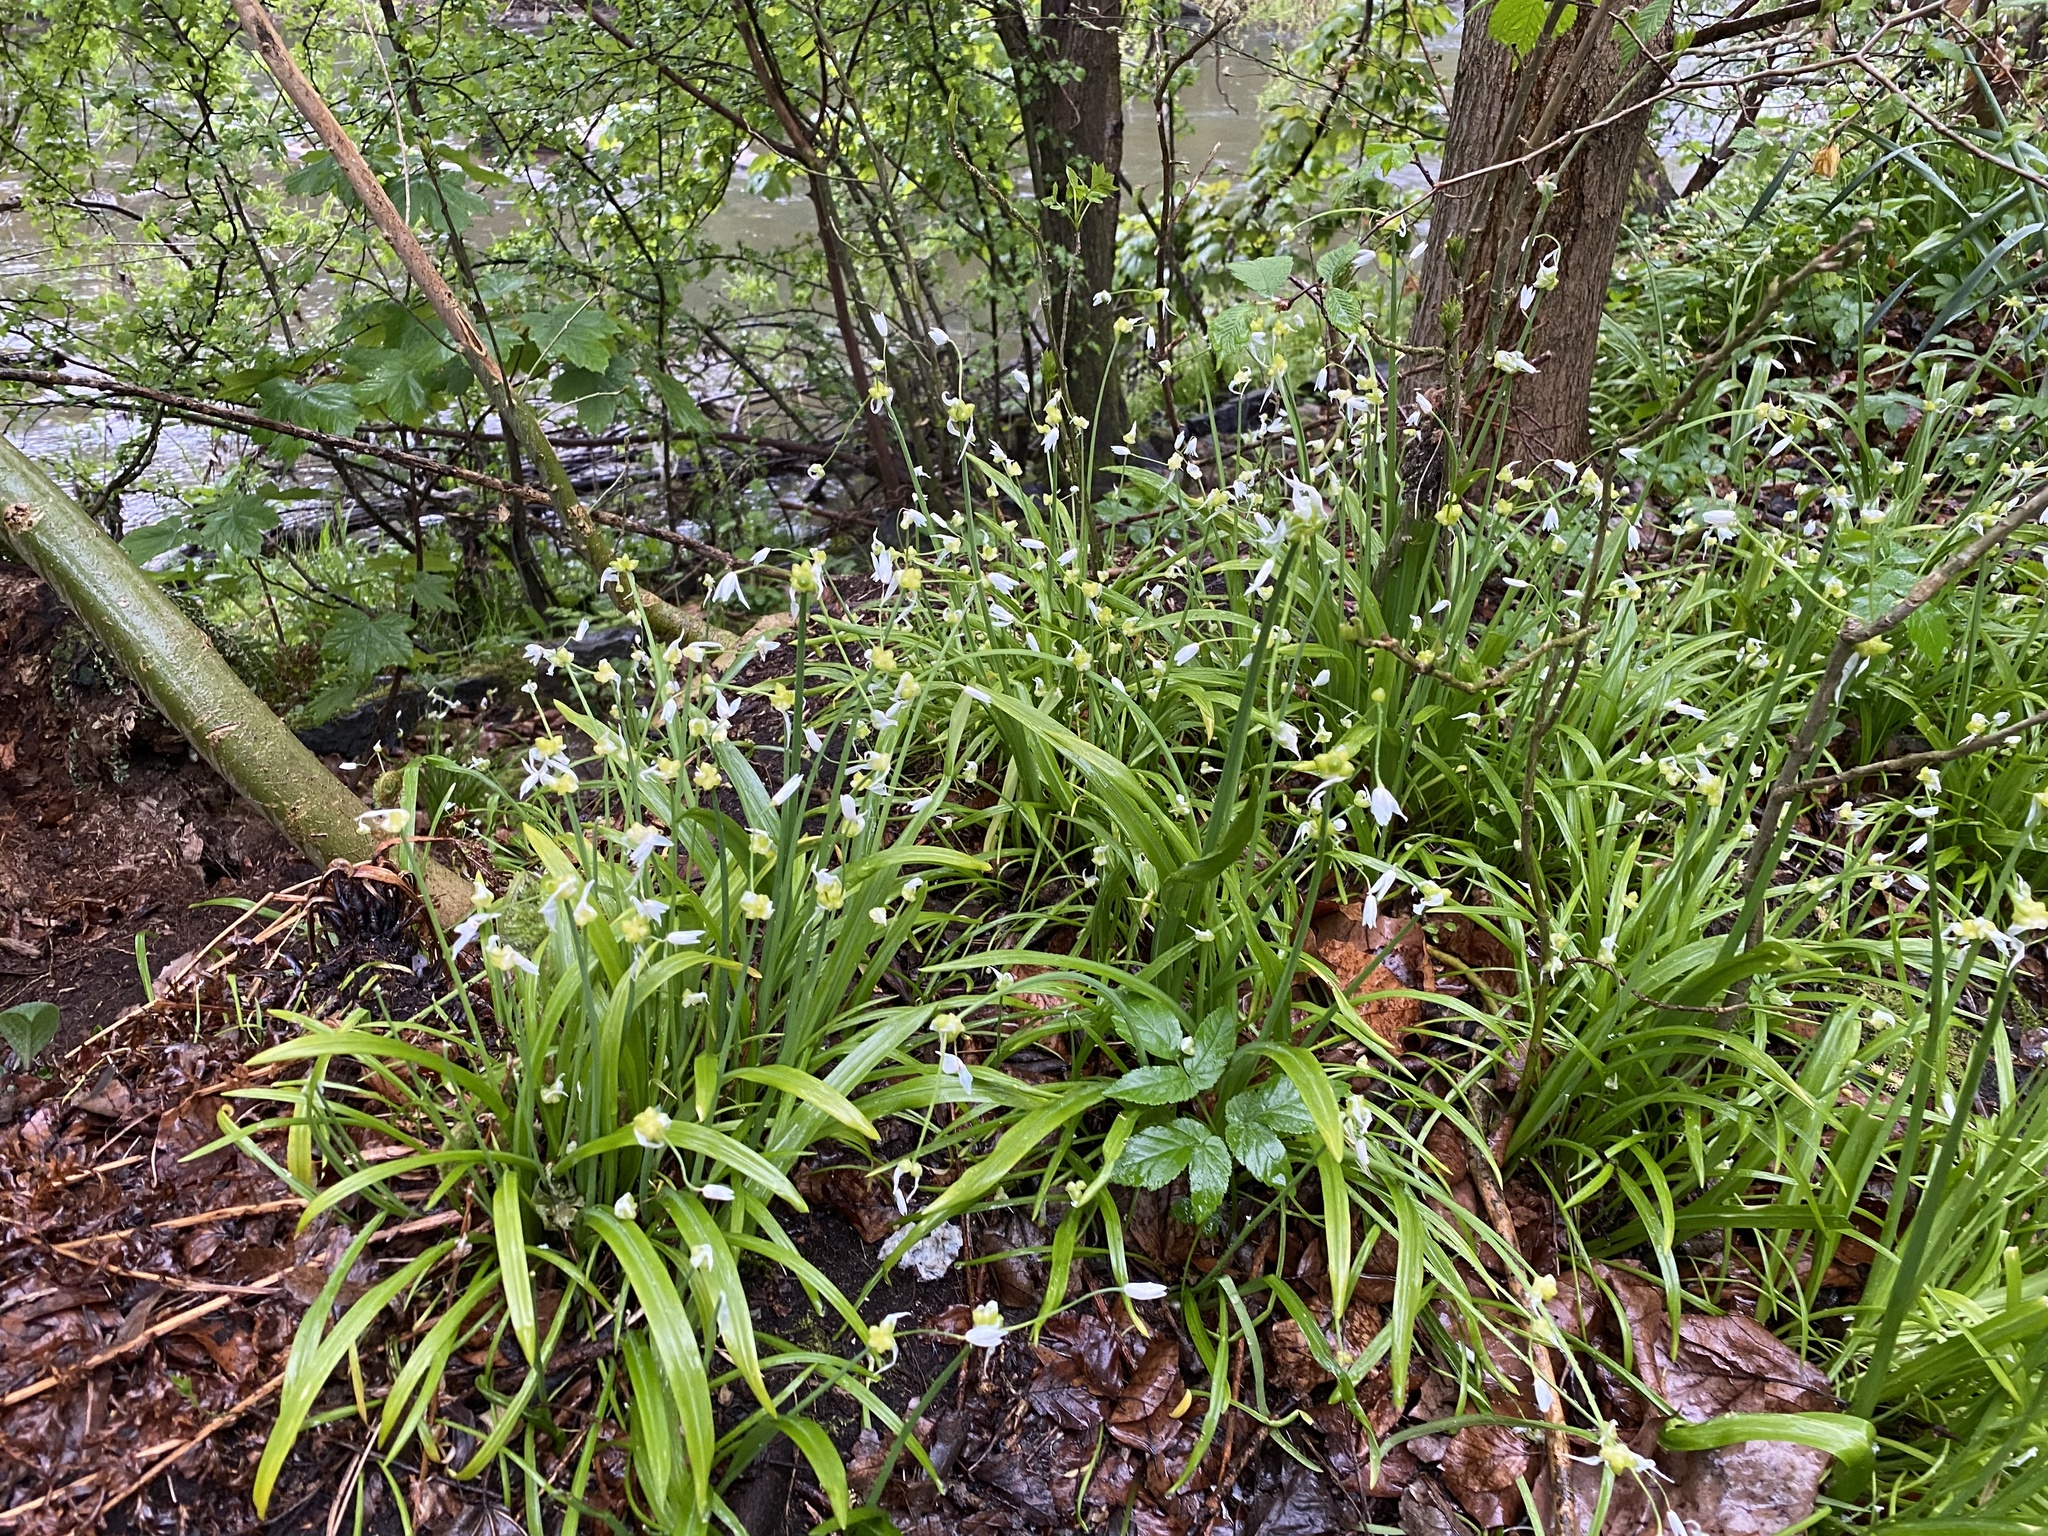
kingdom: Plantae
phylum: Tracheophyta
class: Liliopsida
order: Asparagales
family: Amaryllidaceae
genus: Allium
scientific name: Allium paradoxum
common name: Few-flowered garlic
